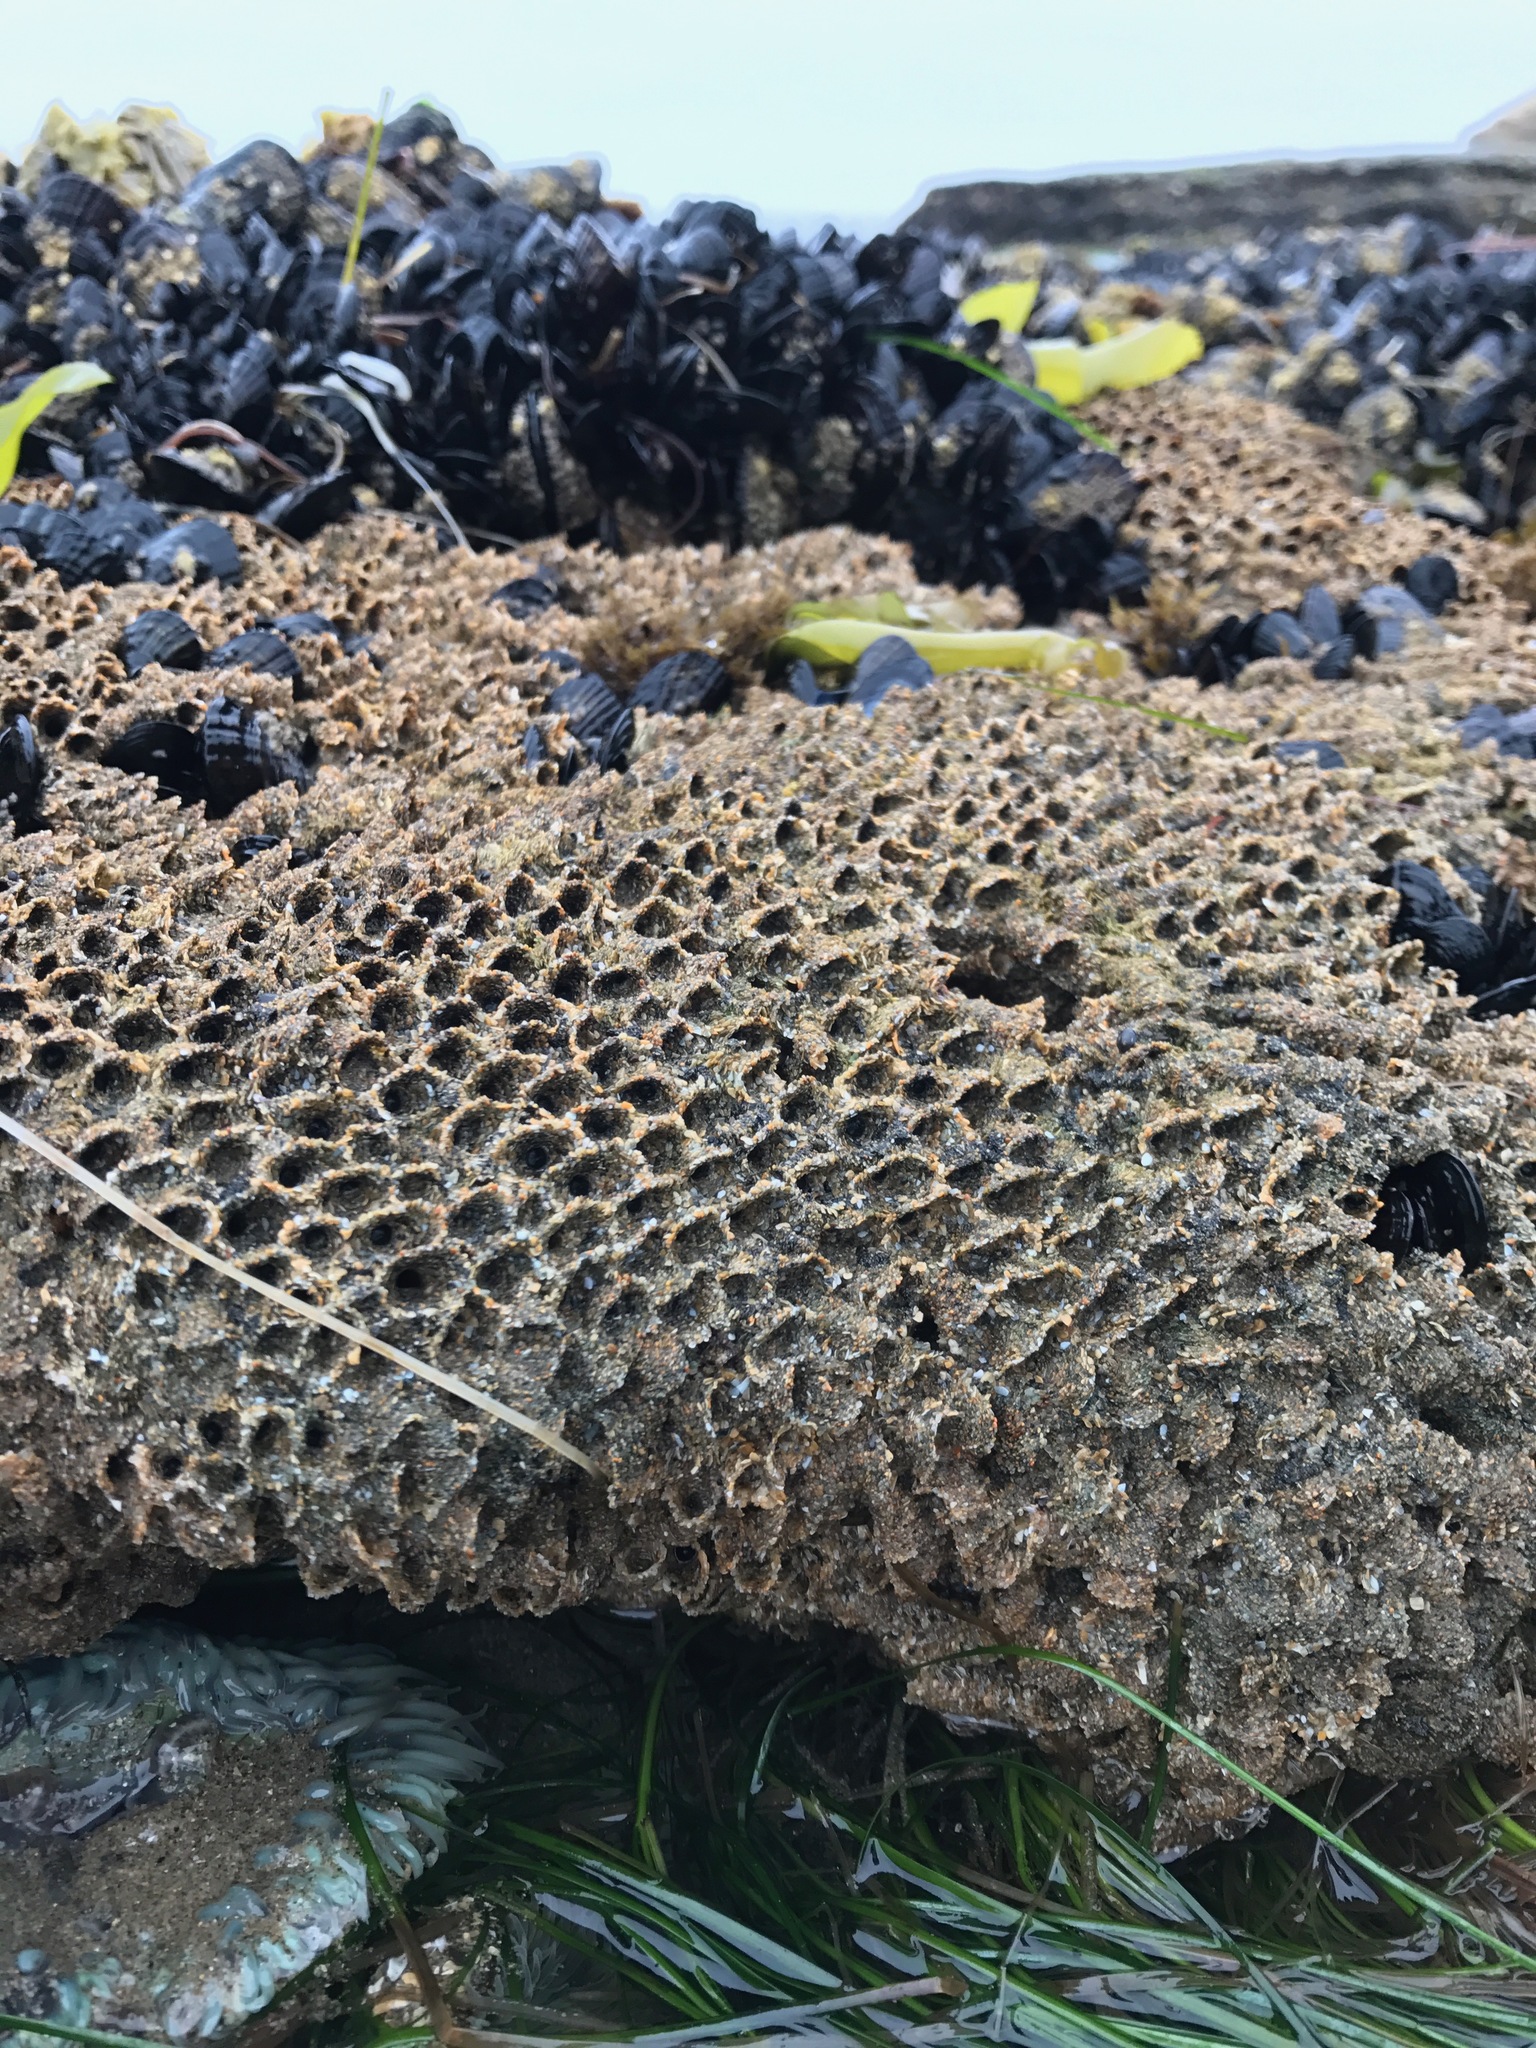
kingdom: Animalia
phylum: Annelida
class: Polychaeta
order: Sabellida
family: Sabellariidae
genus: Phragmatopoma
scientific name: Phragmatopoma californica
